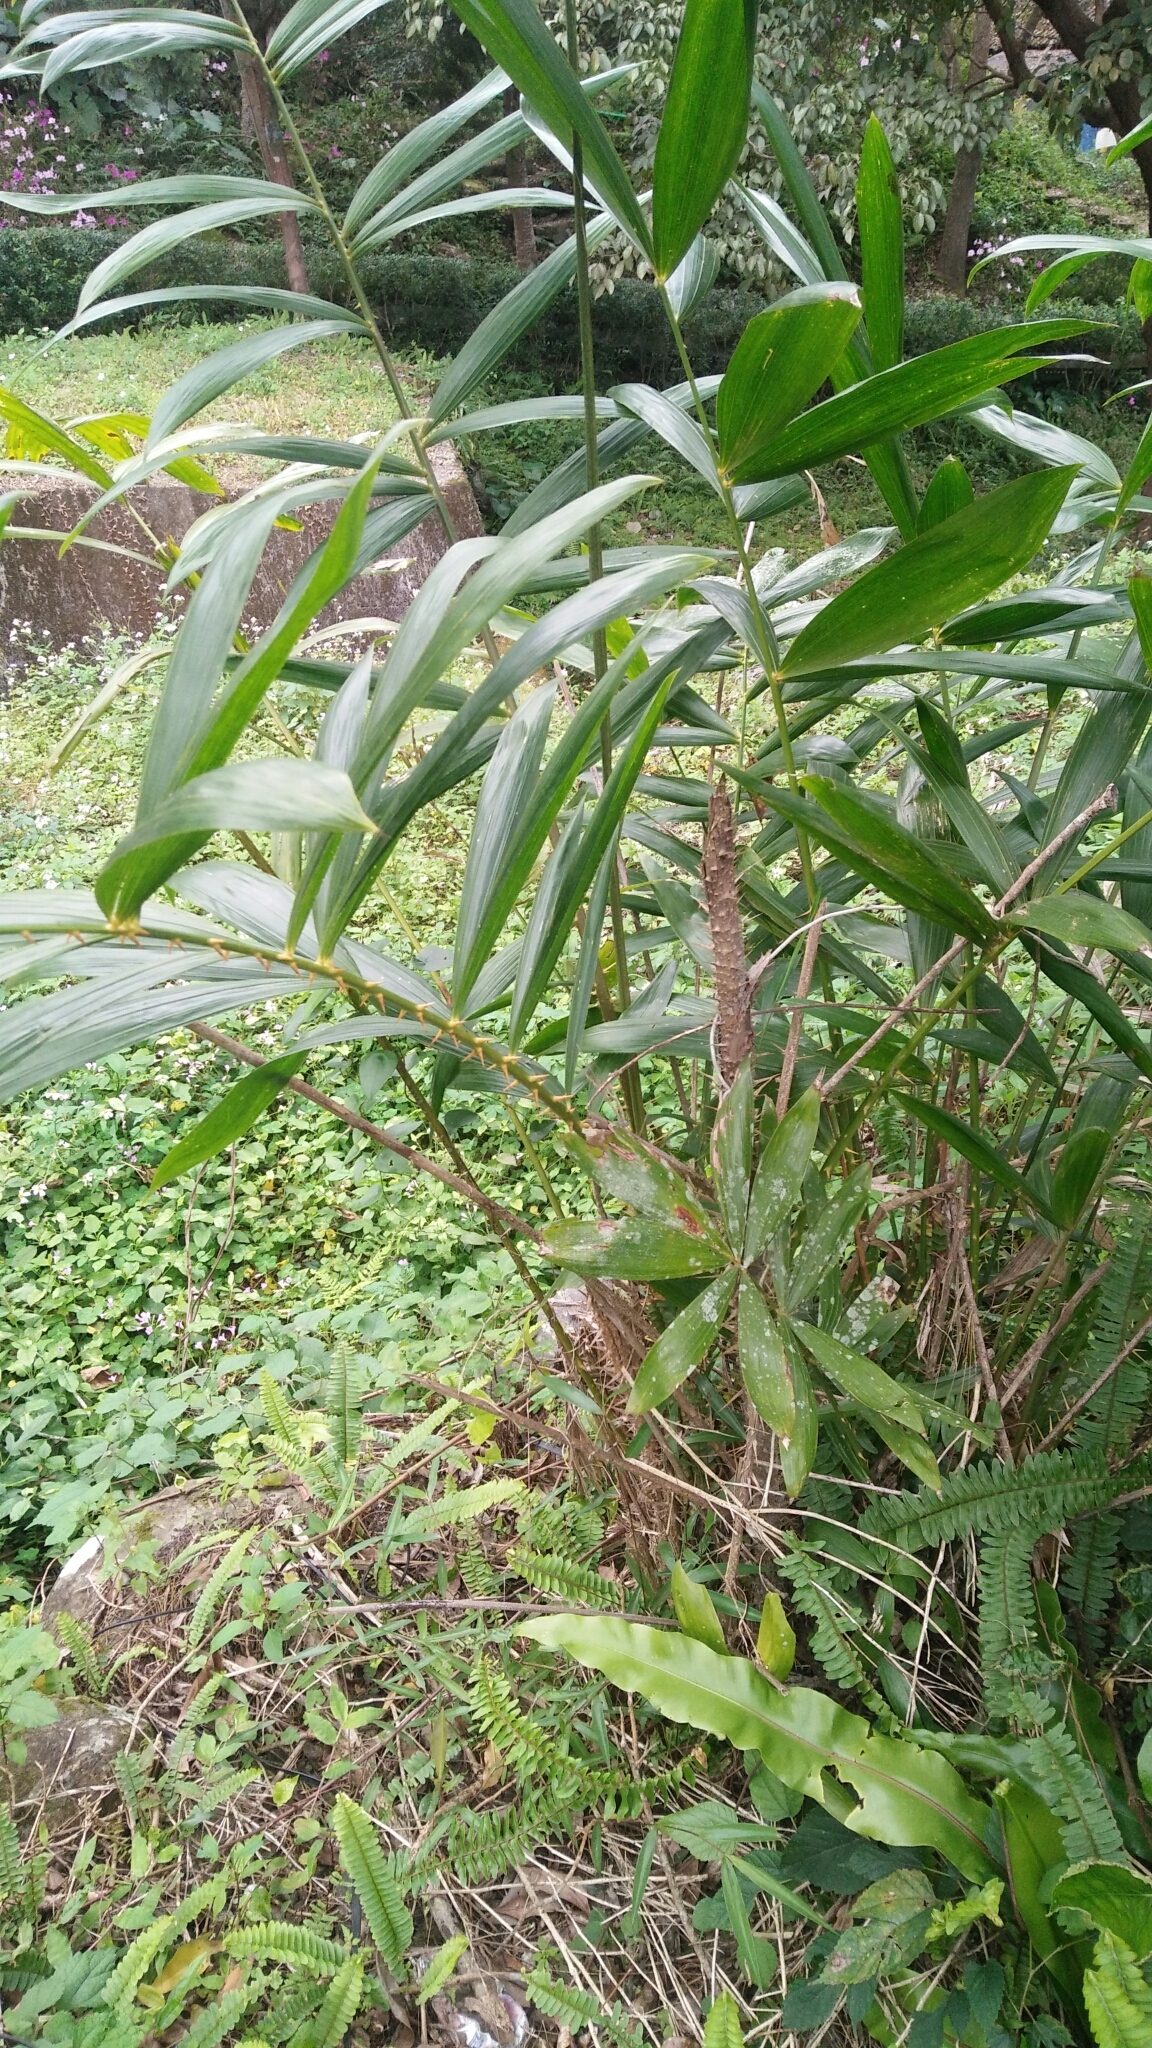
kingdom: Plantae
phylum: Tracheophyta
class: Liliopsida
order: Arecales
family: Arecaceae
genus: Calamus
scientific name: Calamus formosanus
